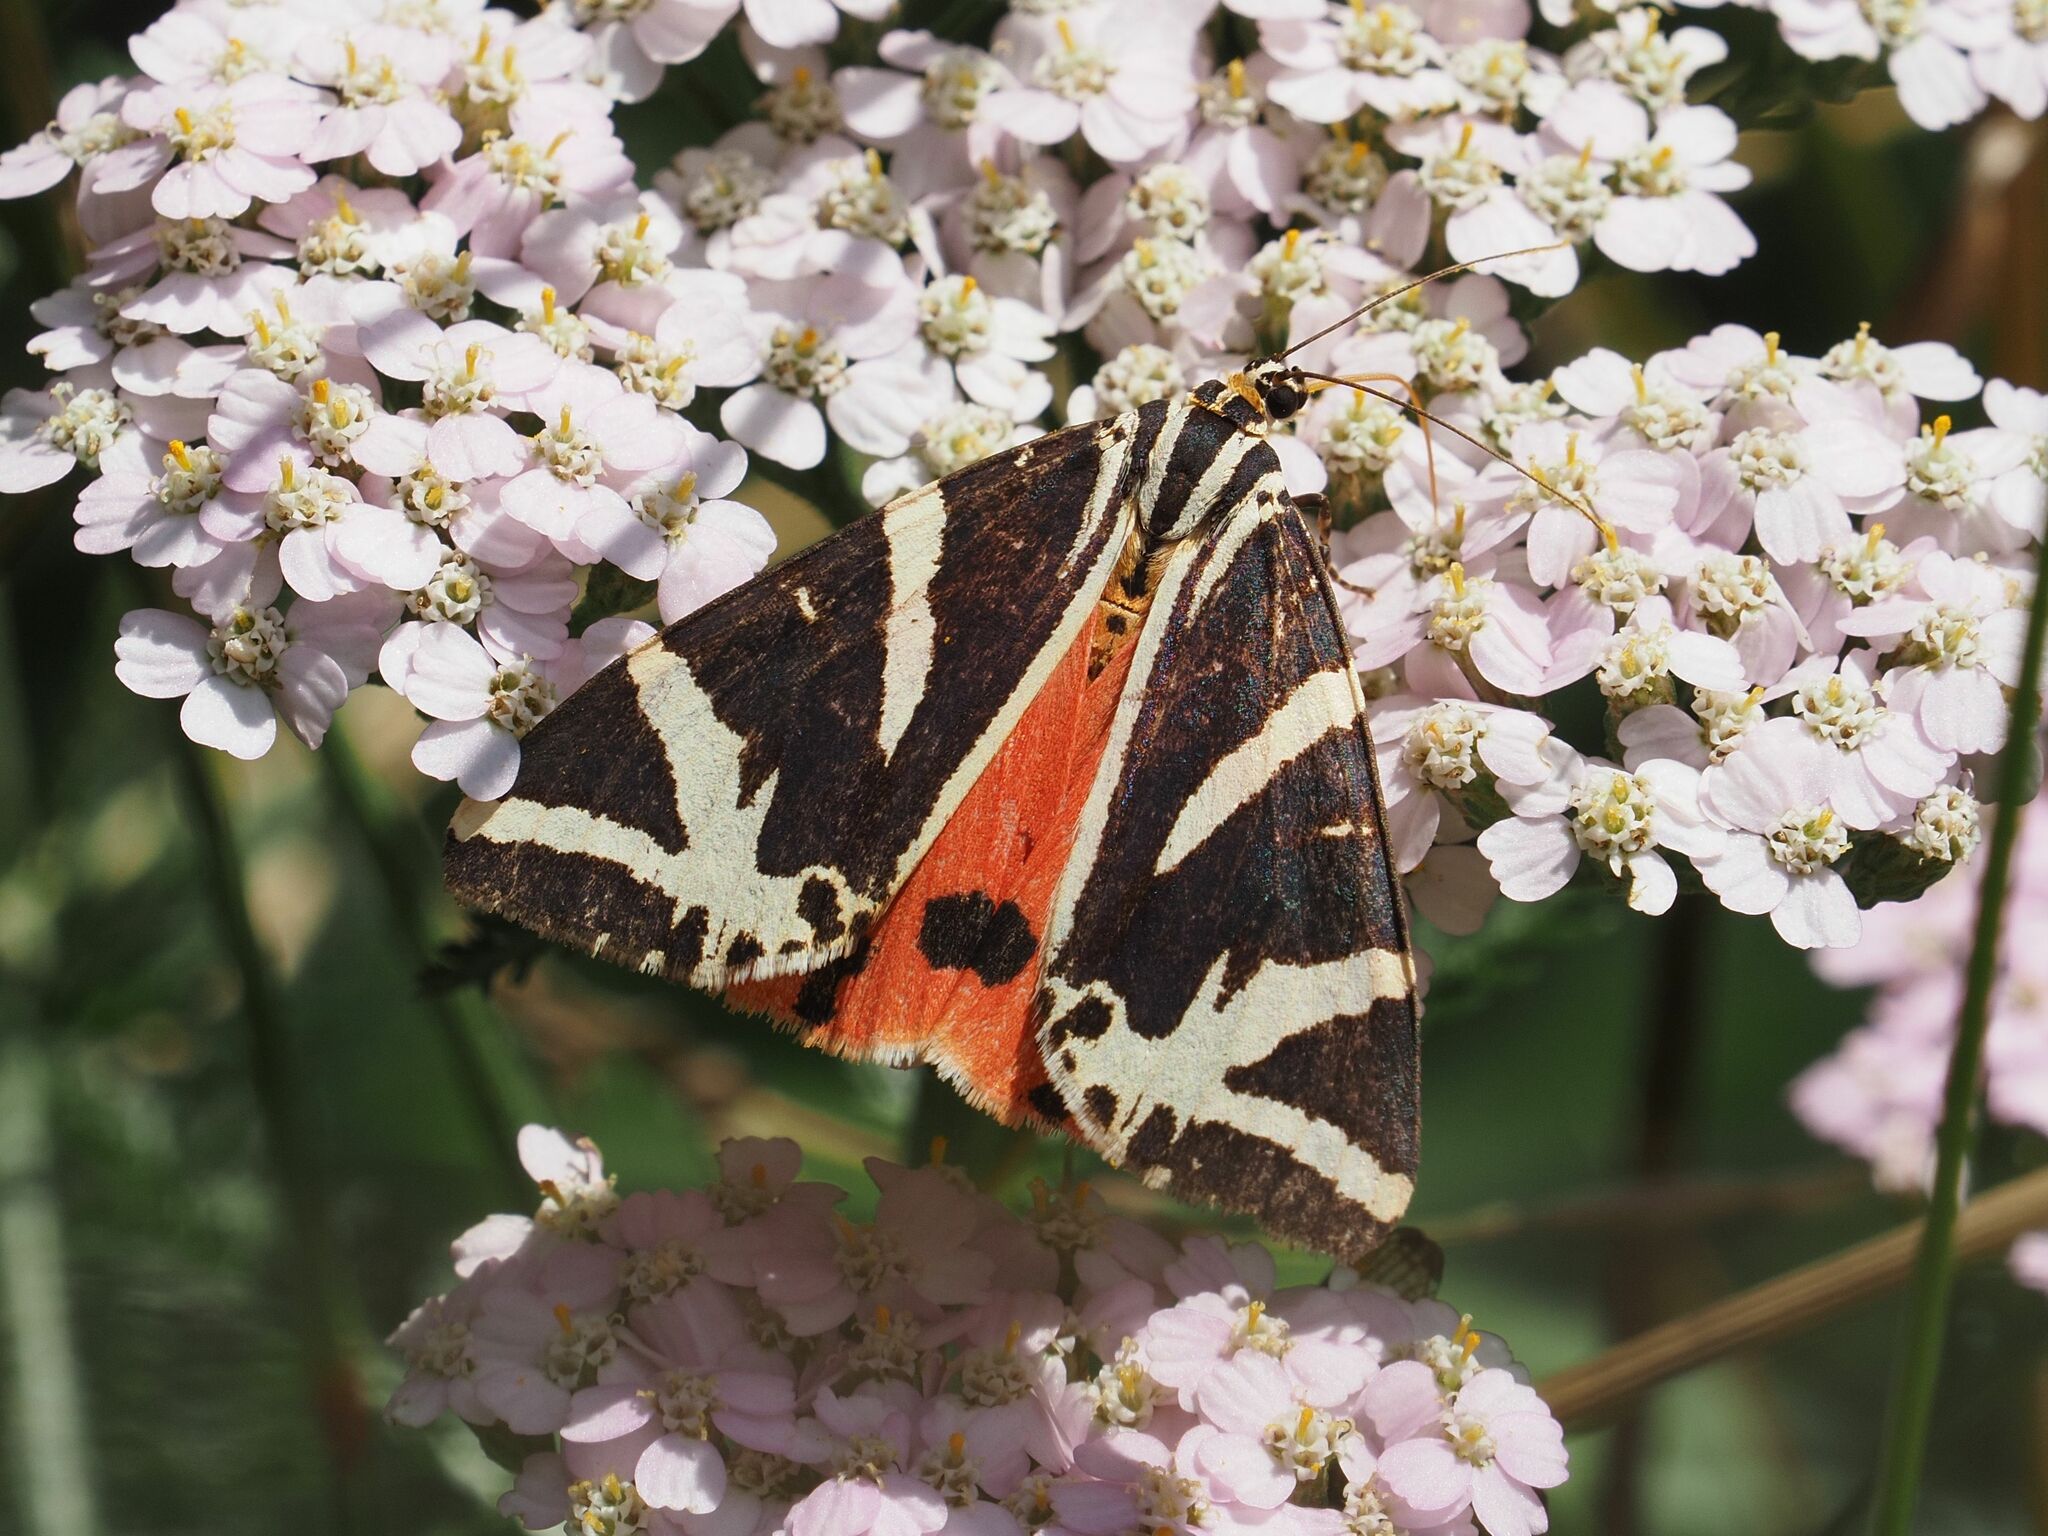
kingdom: Animalia
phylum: Arthropoda
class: Insecta
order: Lepidoptera
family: Erebidae
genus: Euplagia
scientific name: Euplagia quadripunctaria
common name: Jersey tiger
